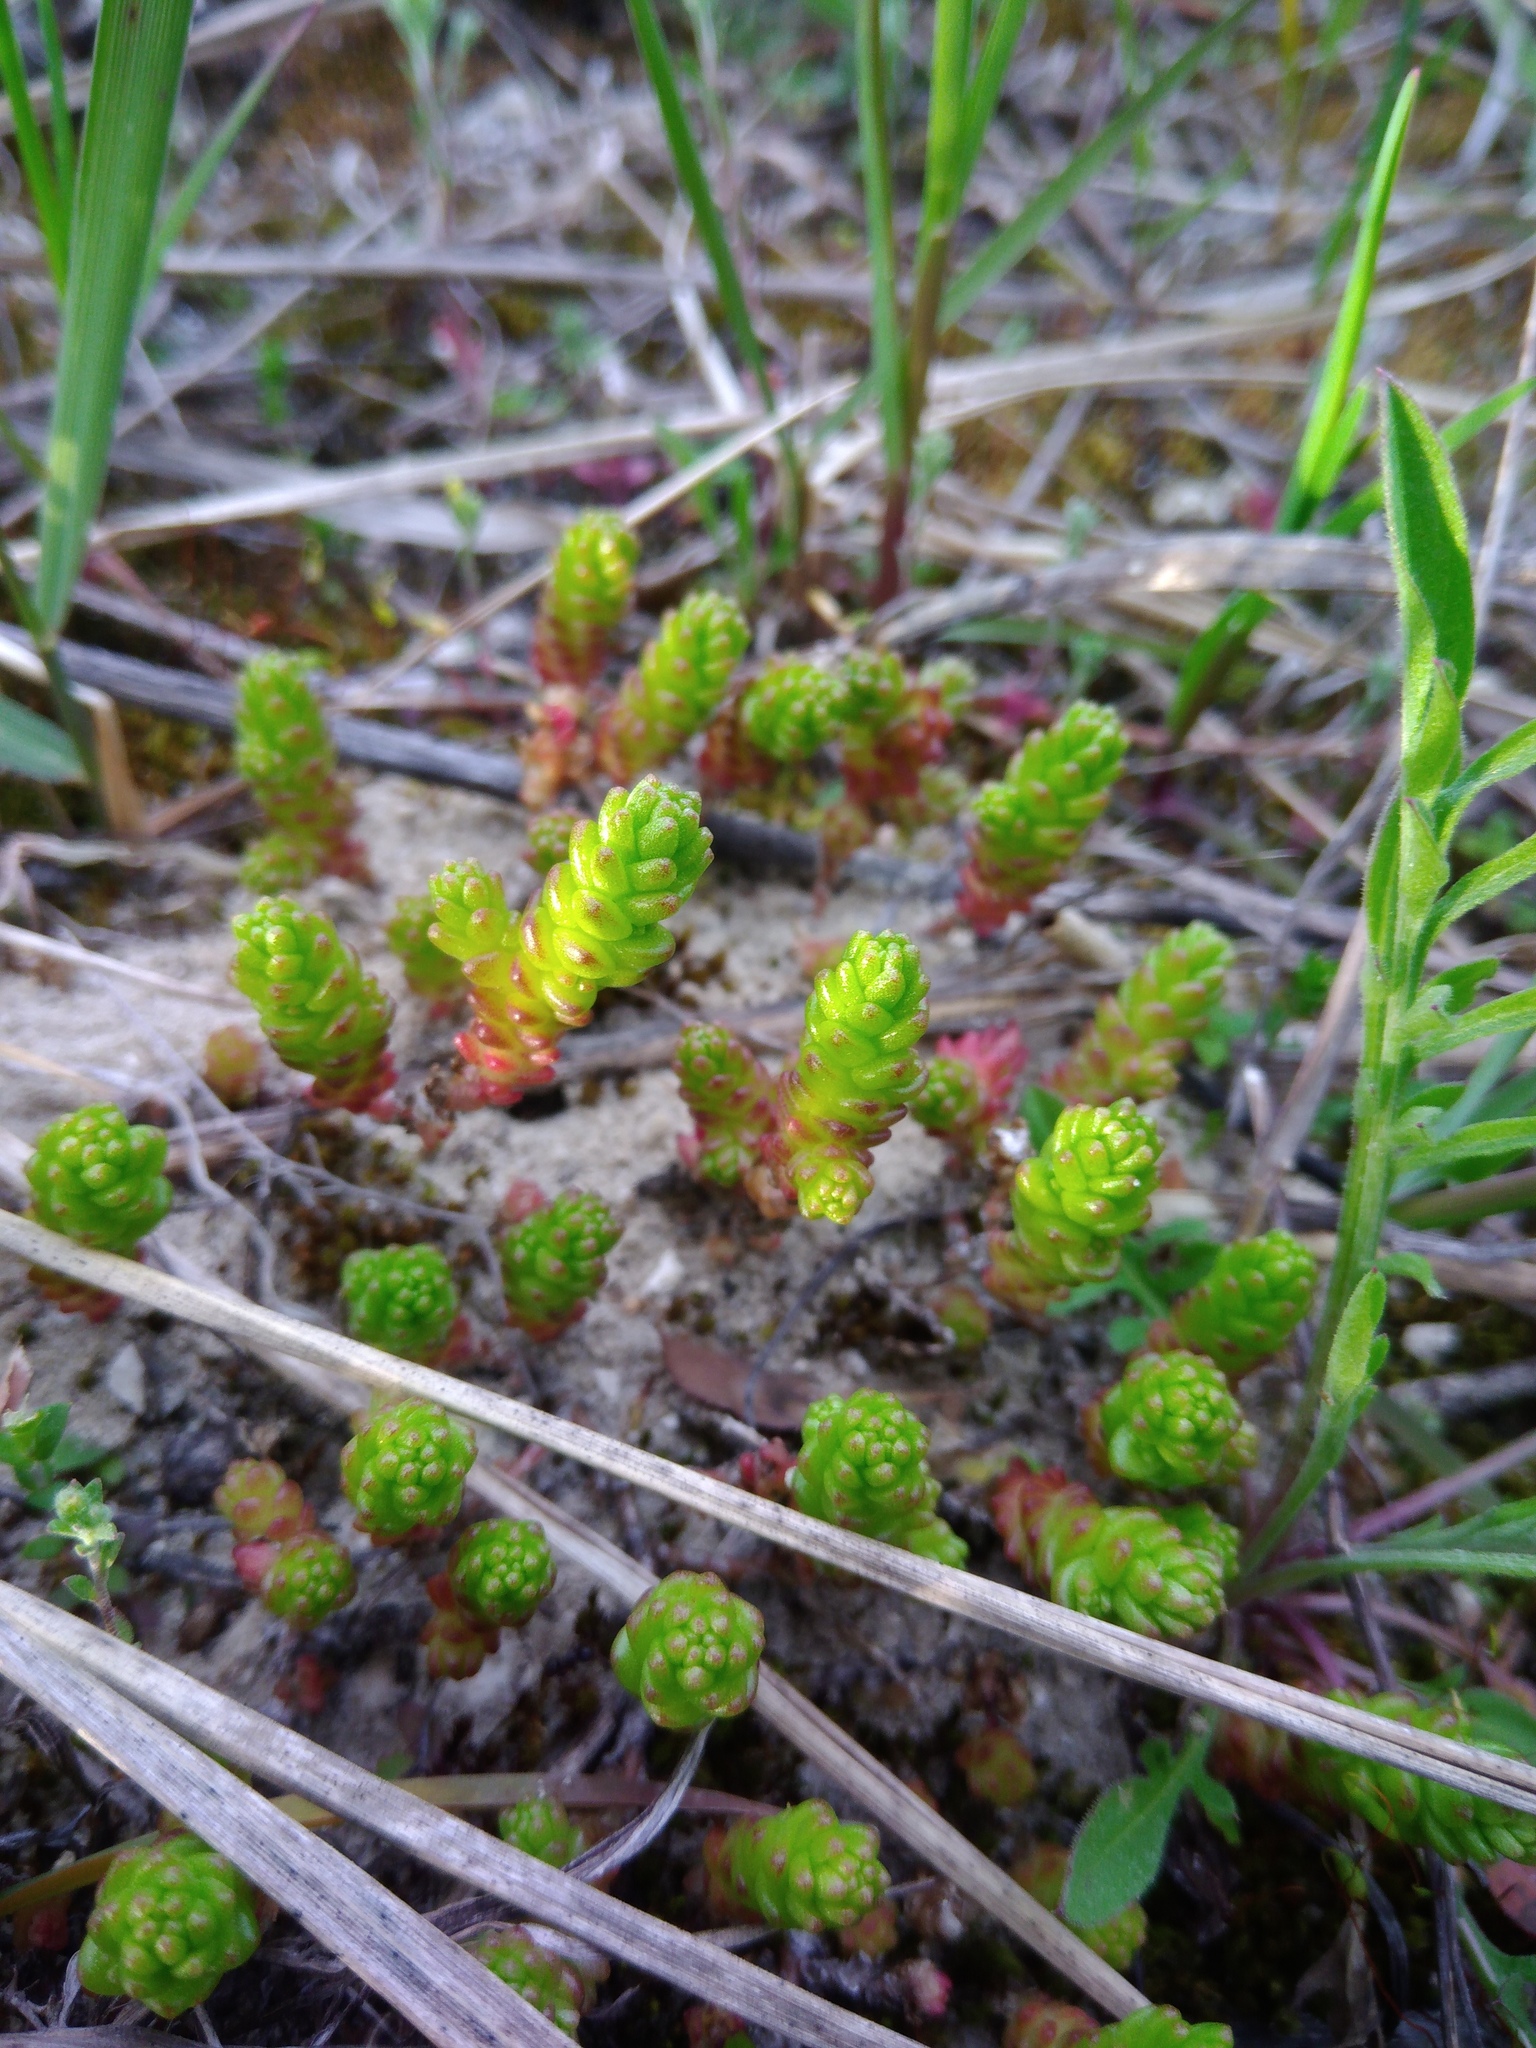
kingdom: Plantae
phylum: Tracheophyta
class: Magnoliopsida
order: Saxifragales
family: Crassulaceae
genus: Sedum
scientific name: Sedum acre
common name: Biting stonecrop
